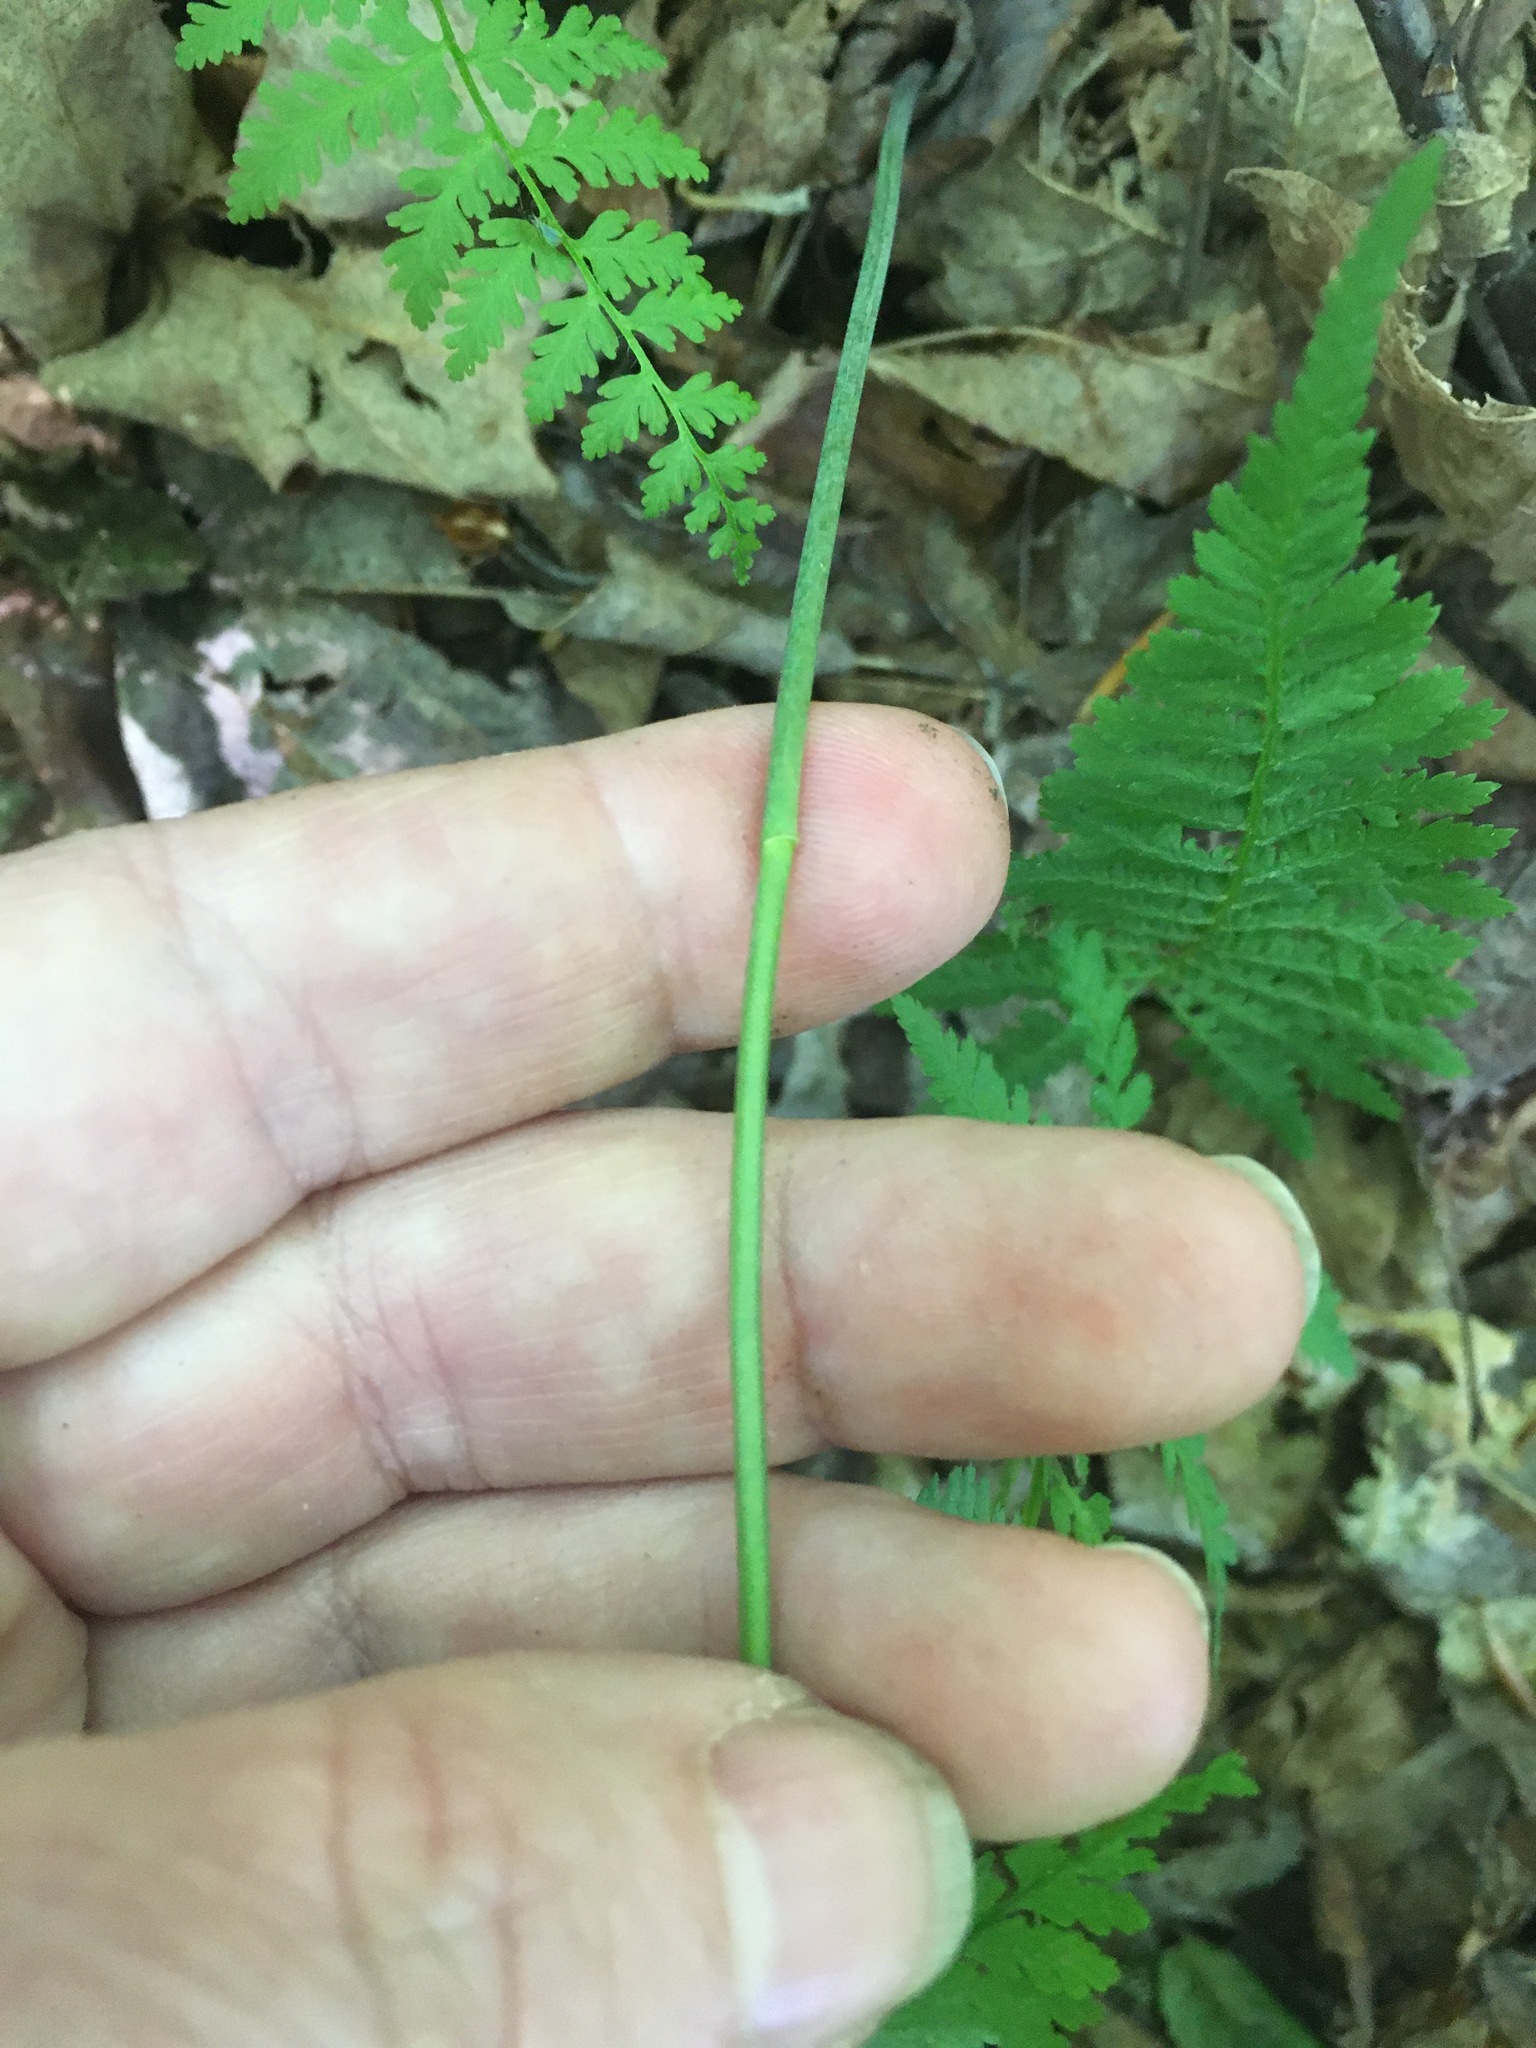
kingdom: Plantae
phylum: Tracheophyta
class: Liliopsida
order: Asparagales
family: Asparagaceae
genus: Polygonatum
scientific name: Polygonatum pubescens
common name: Downy solomon's seal
